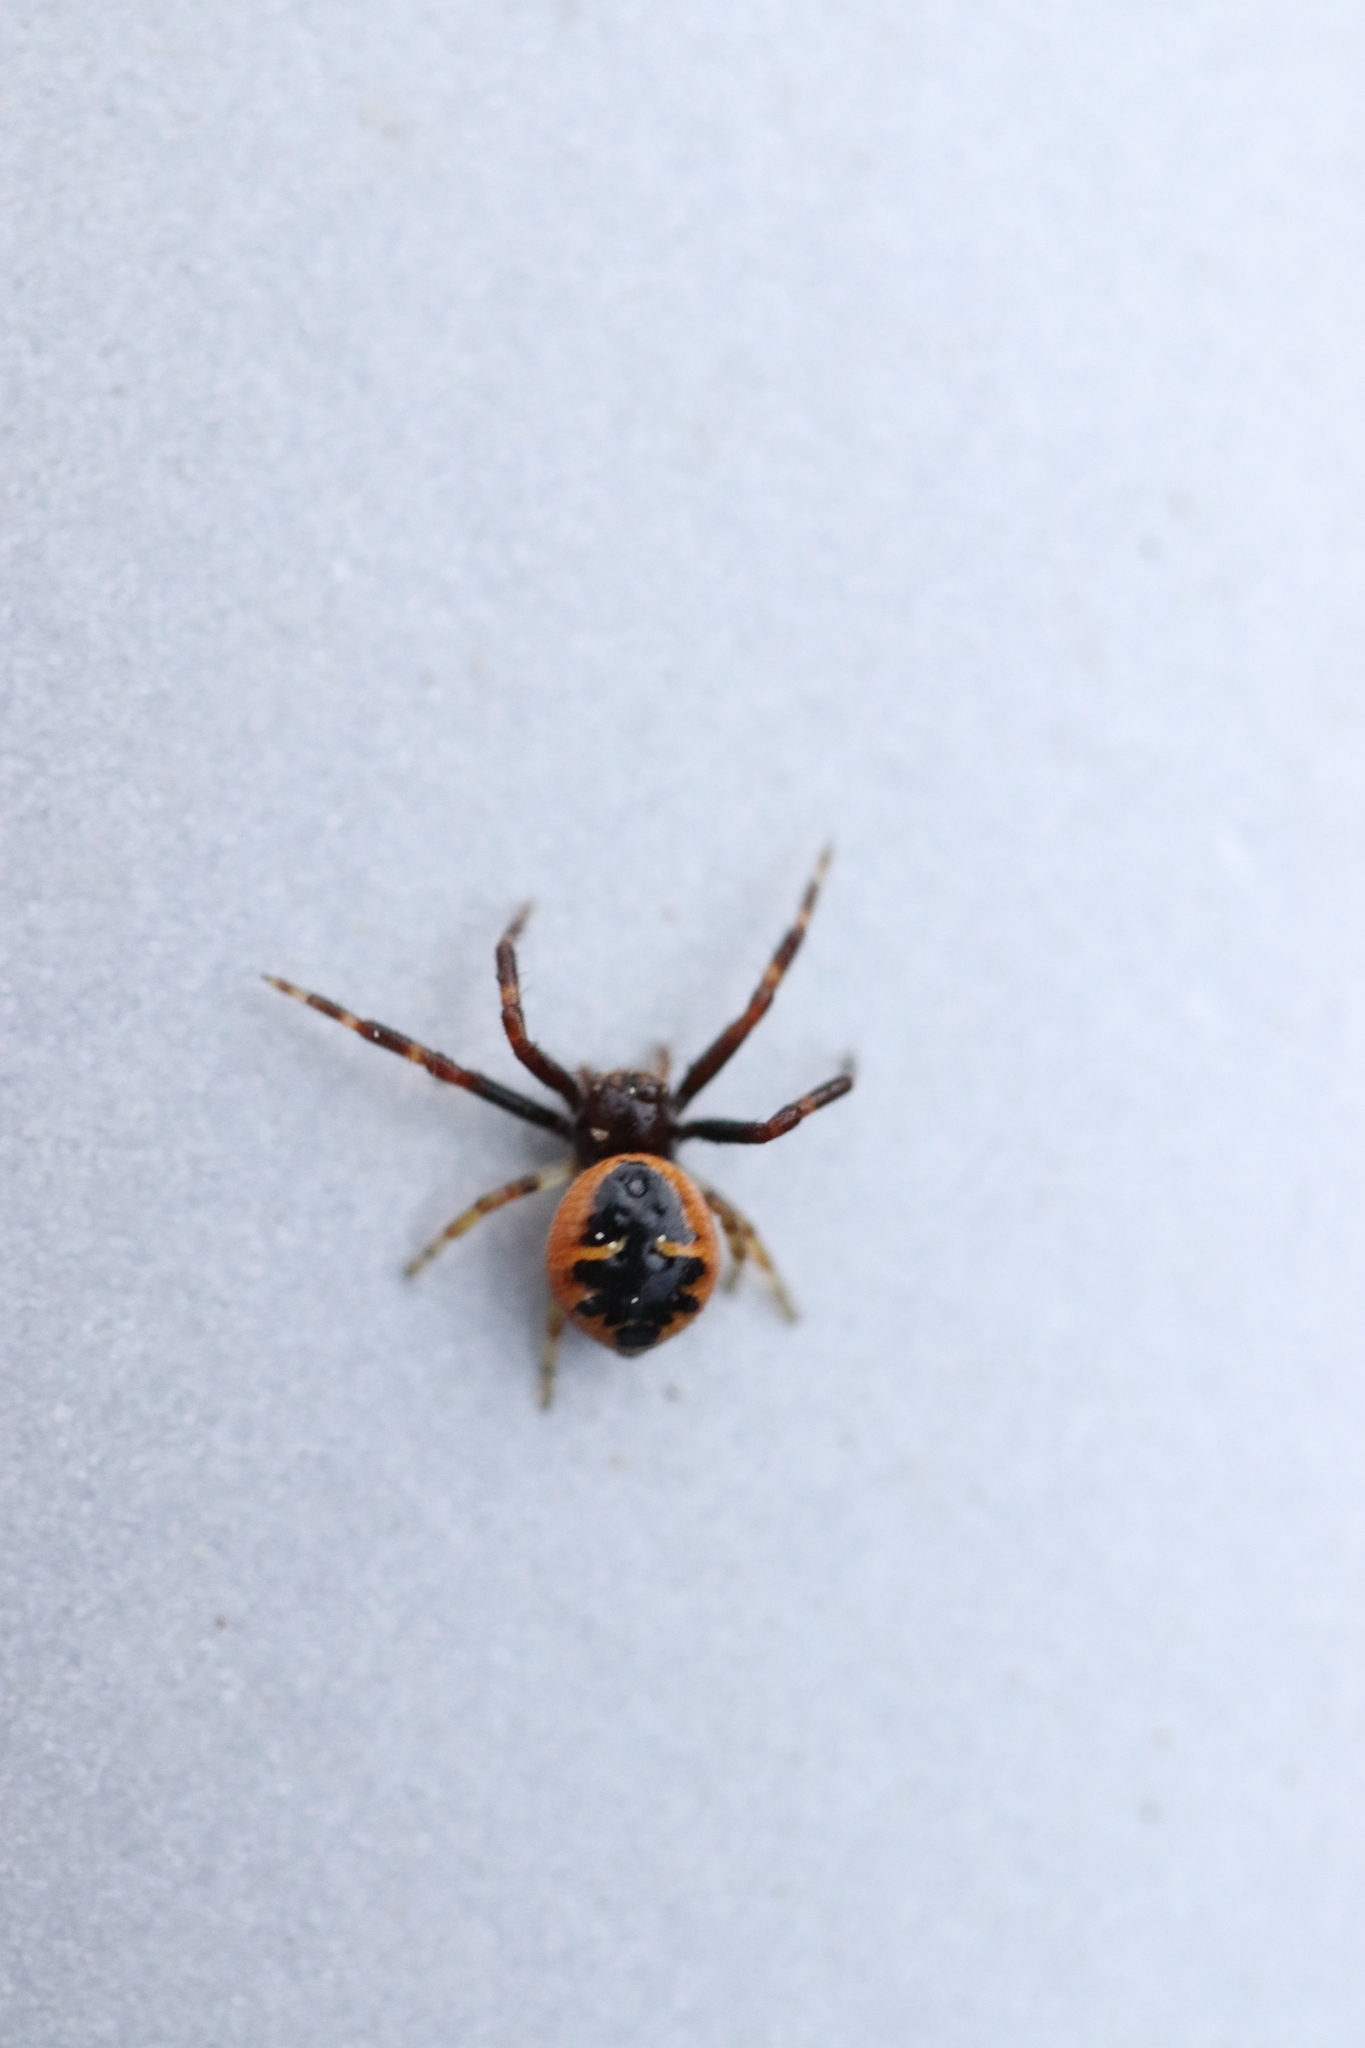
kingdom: Animalia
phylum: Arthropoda
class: Arachnida
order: Araneae
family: Thomisidae
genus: Synema
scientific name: Synema globosum
